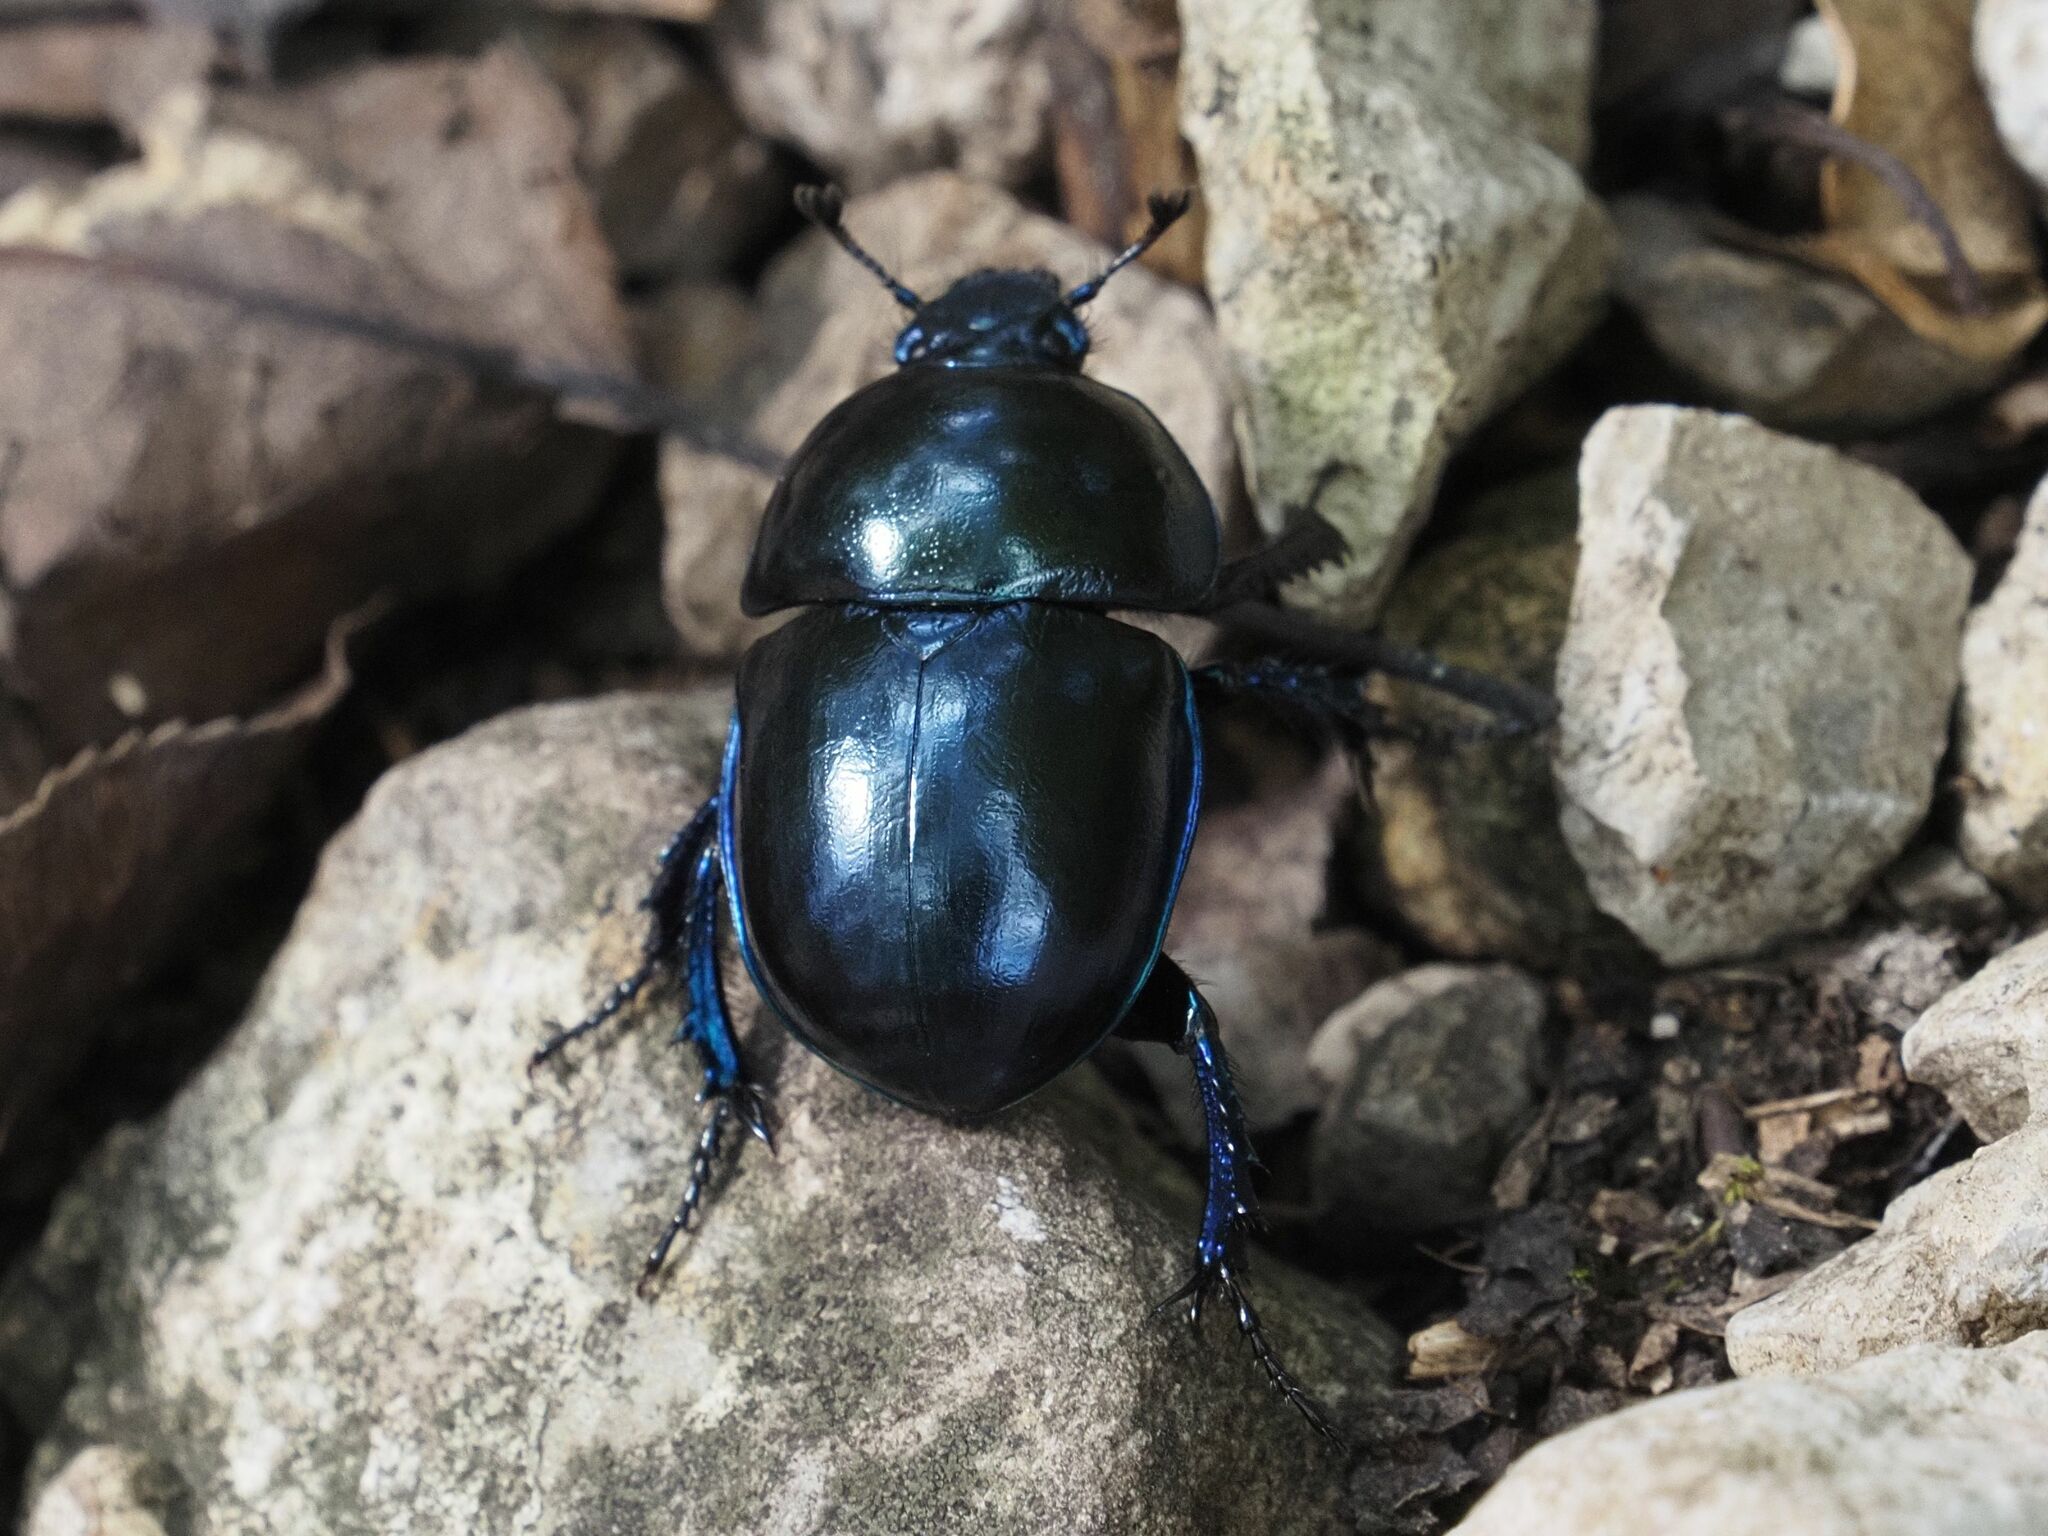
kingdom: Animalia
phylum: Arthropoda
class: Insecta
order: Coleoptera
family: Geotrupidae
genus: Trypocopris
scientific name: Trypocopris vernalis
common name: Spring dumbledor
